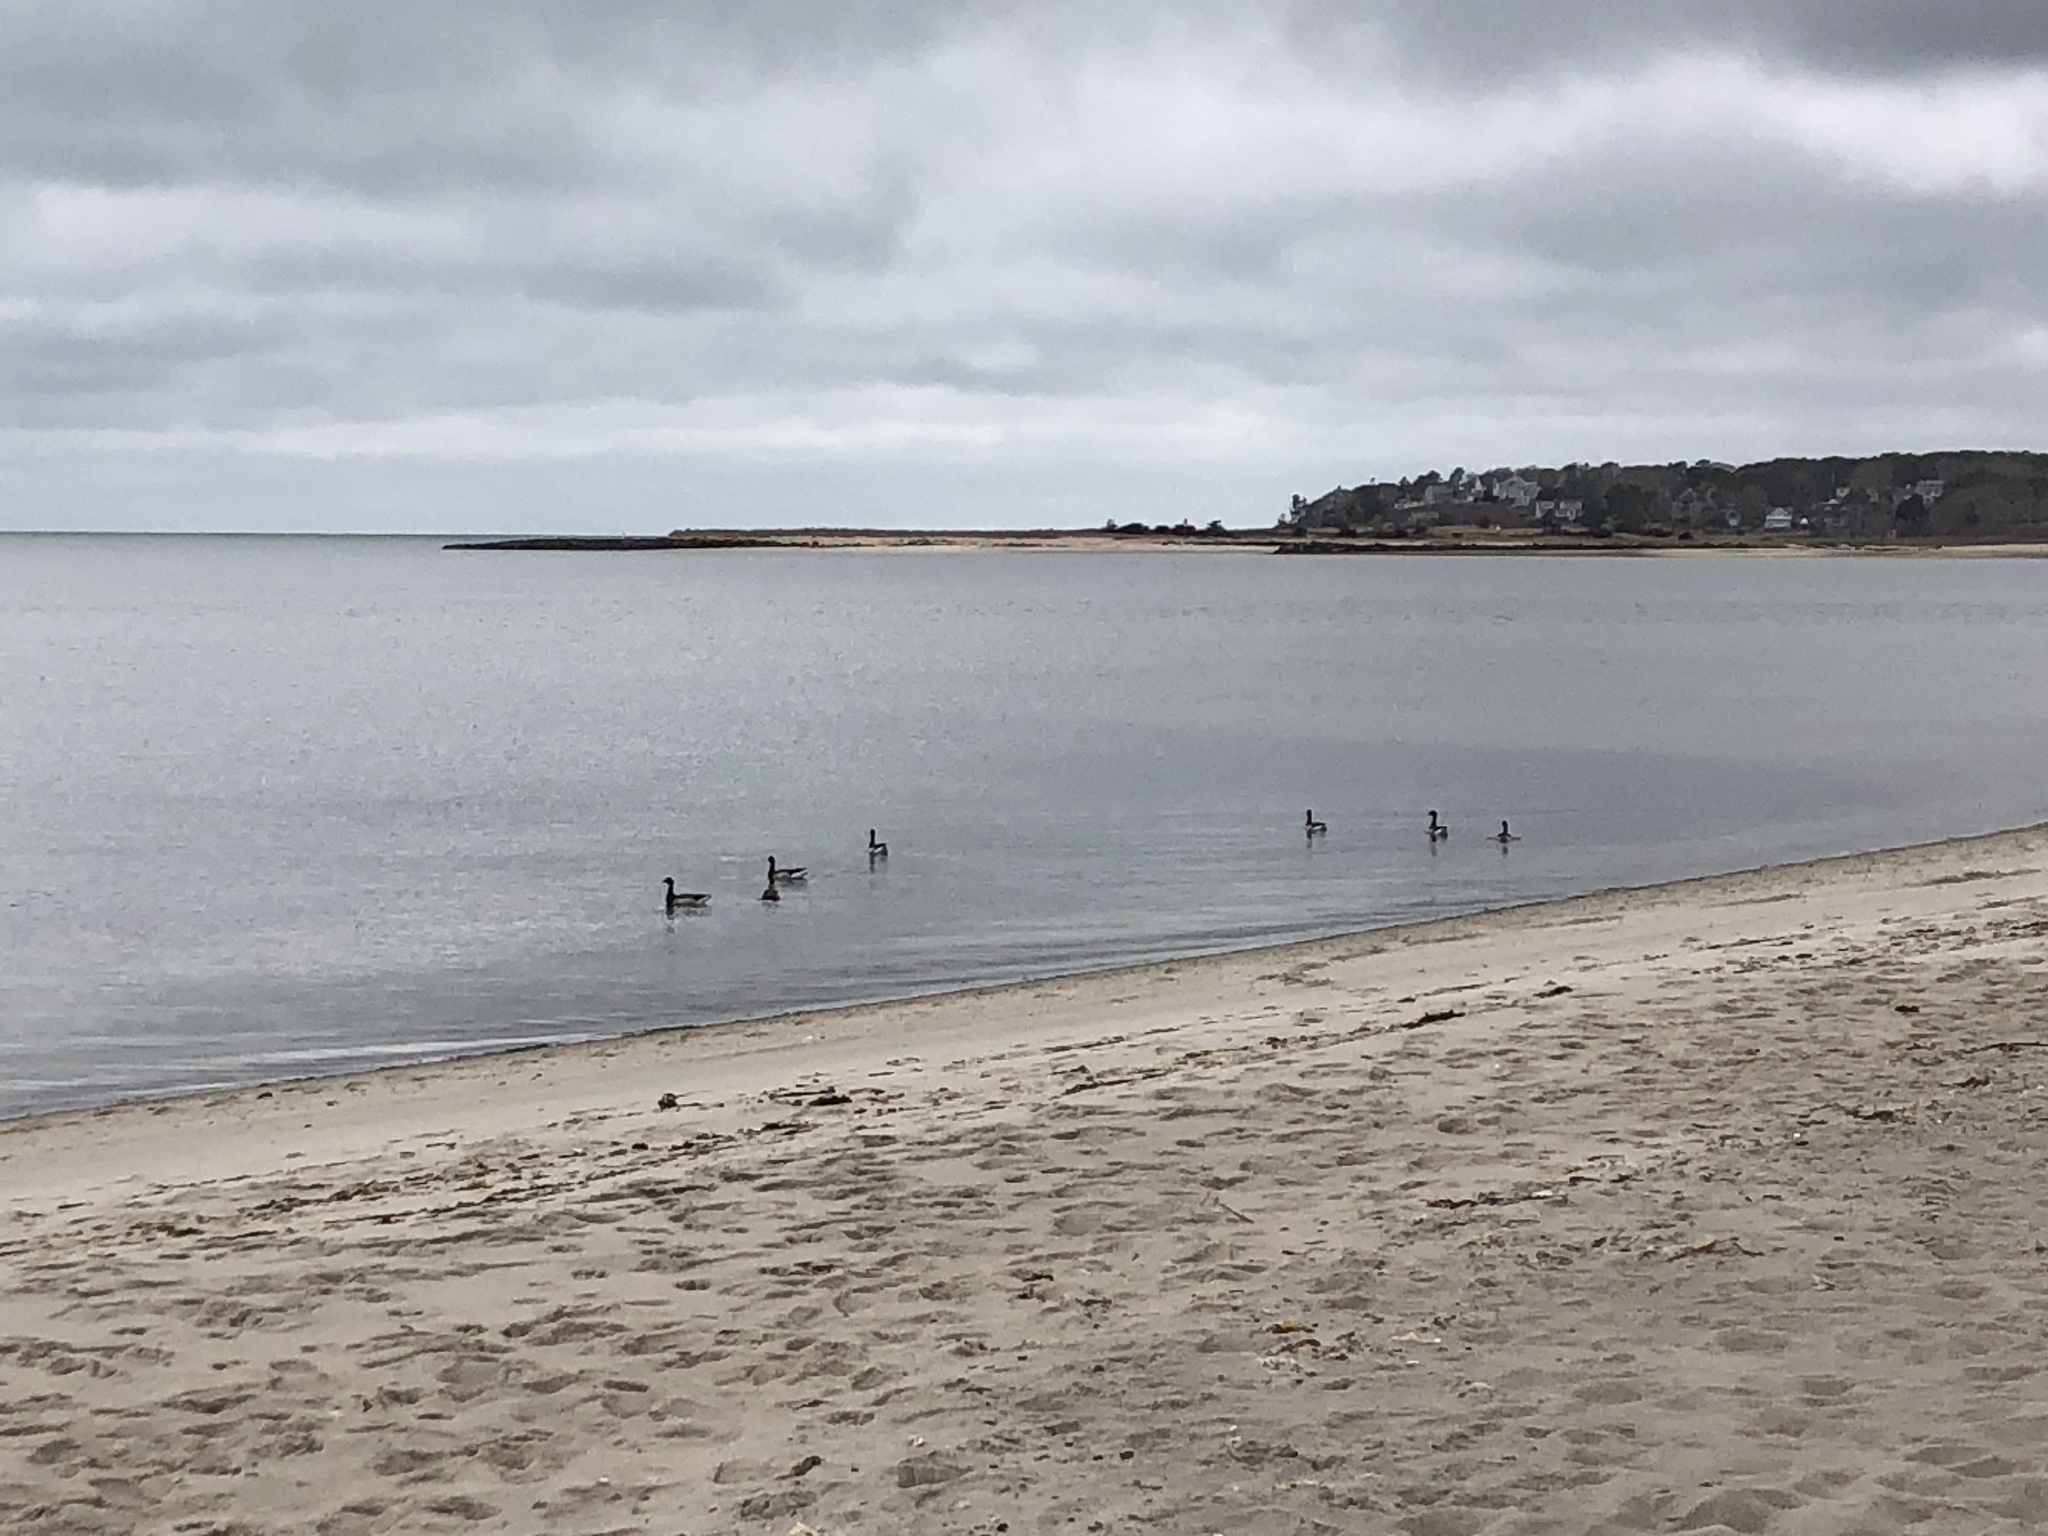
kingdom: Animalia
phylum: Chordata
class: Aves
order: Anseriformes
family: Anatidae
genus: Branta
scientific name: Branta bernicla
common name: Brant goose
